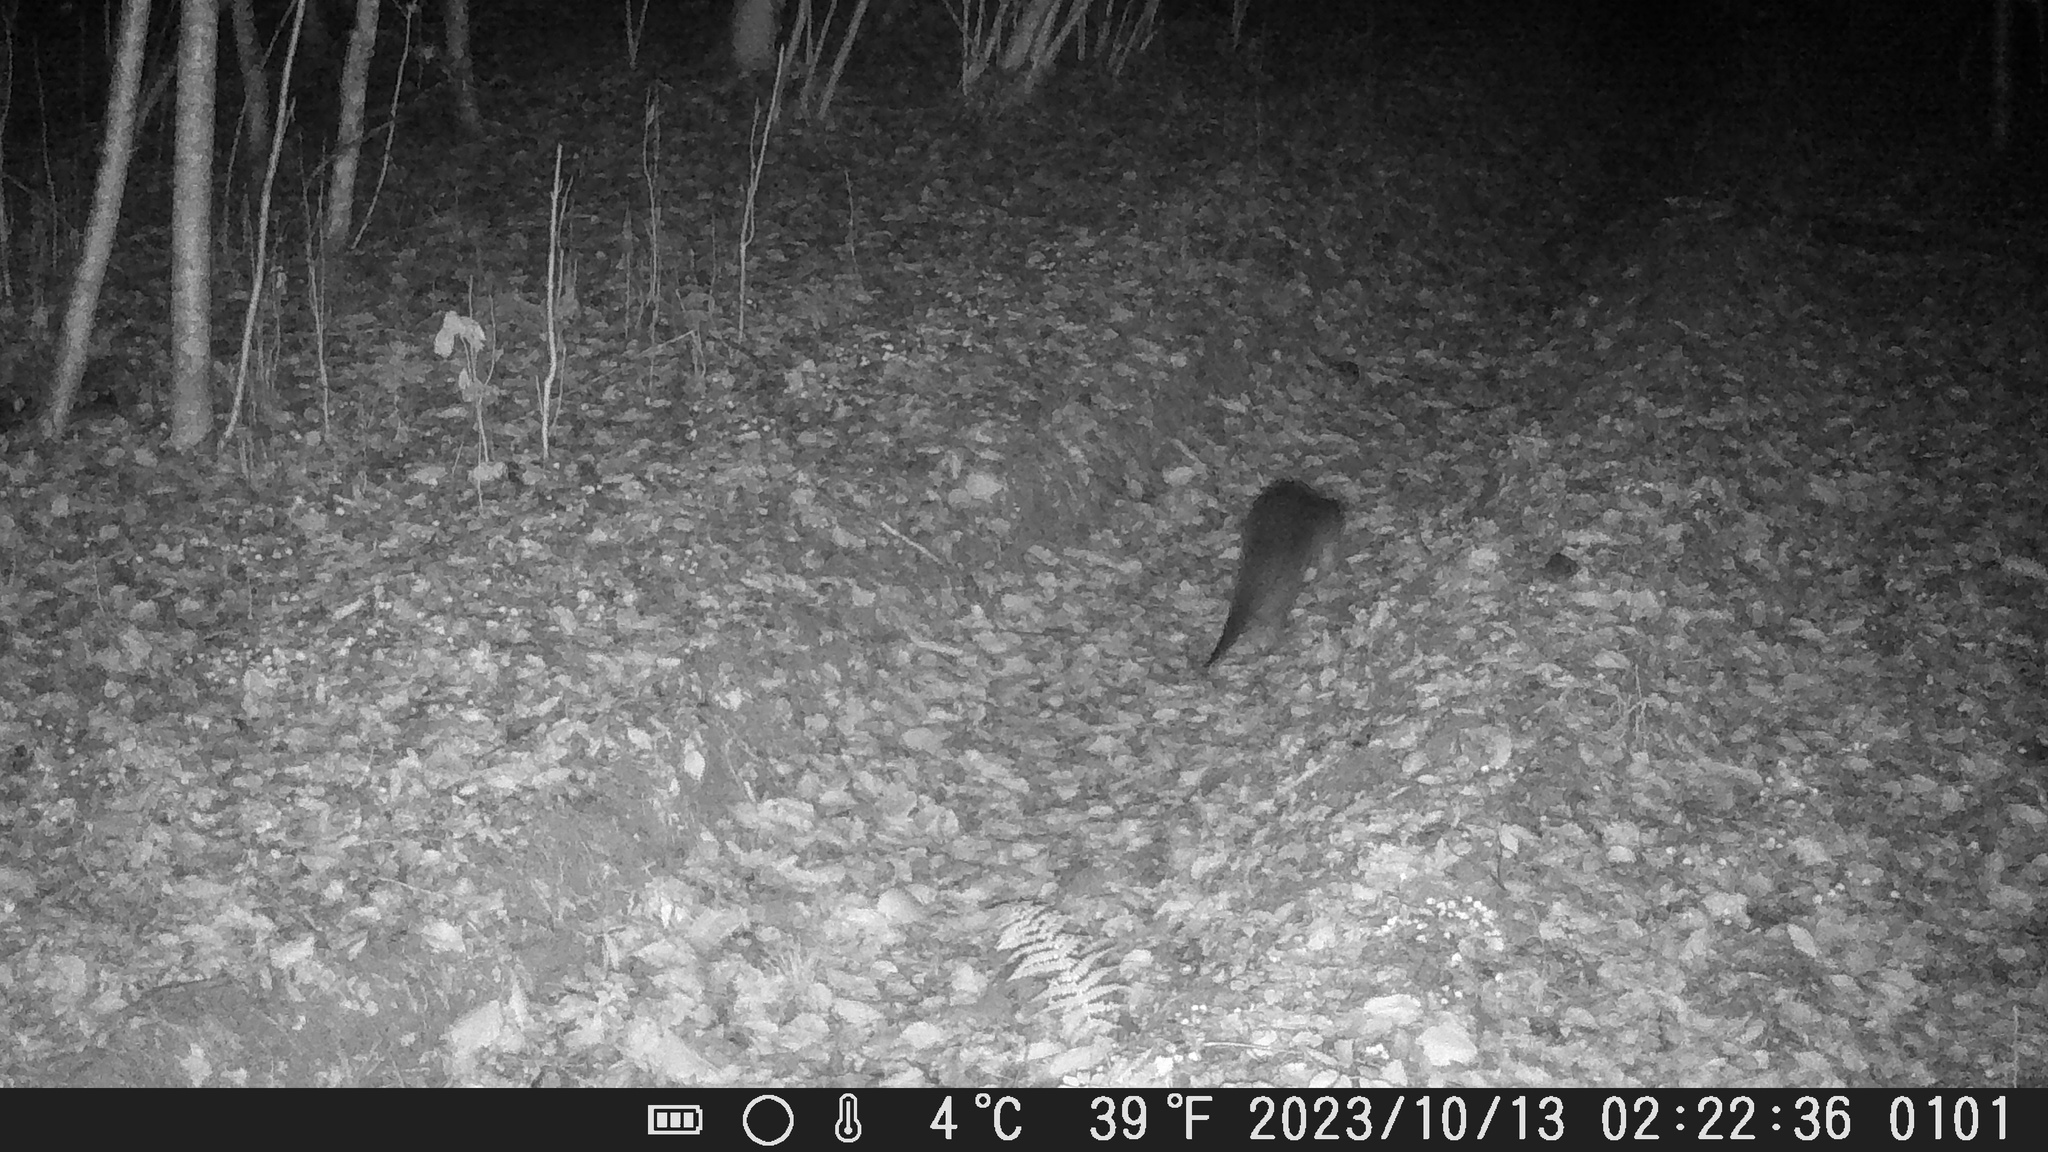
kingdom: Animalia
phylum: Chordata
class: Mammalia
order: Carnivora
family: Mustelidae
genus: Lutra
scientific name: Lutra lutra
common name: European otter
